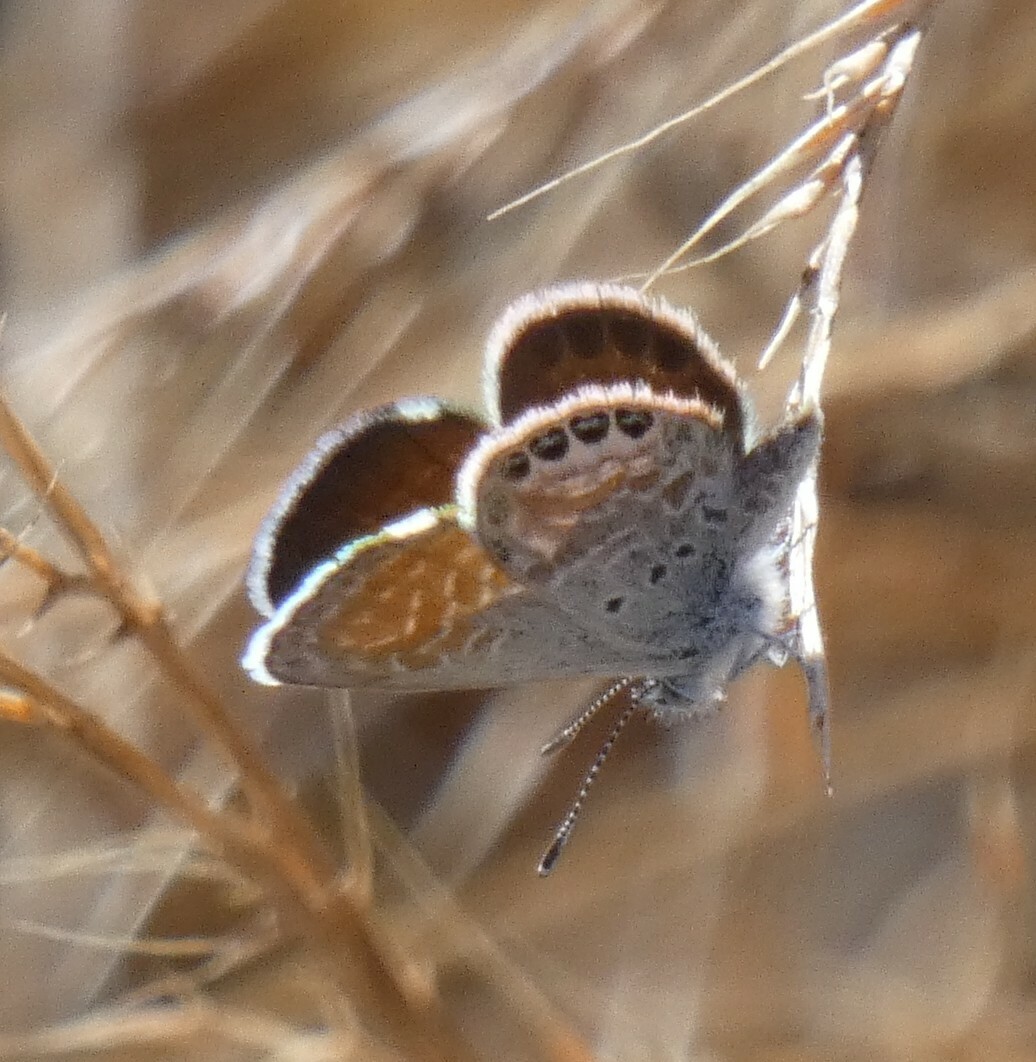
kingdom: Animalia
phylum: Arthropoda
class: Insecta
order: Lepidoptera
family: Lycaenidae
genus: Brephidium
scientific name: Brephidium exilis
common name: Pygmy blue
